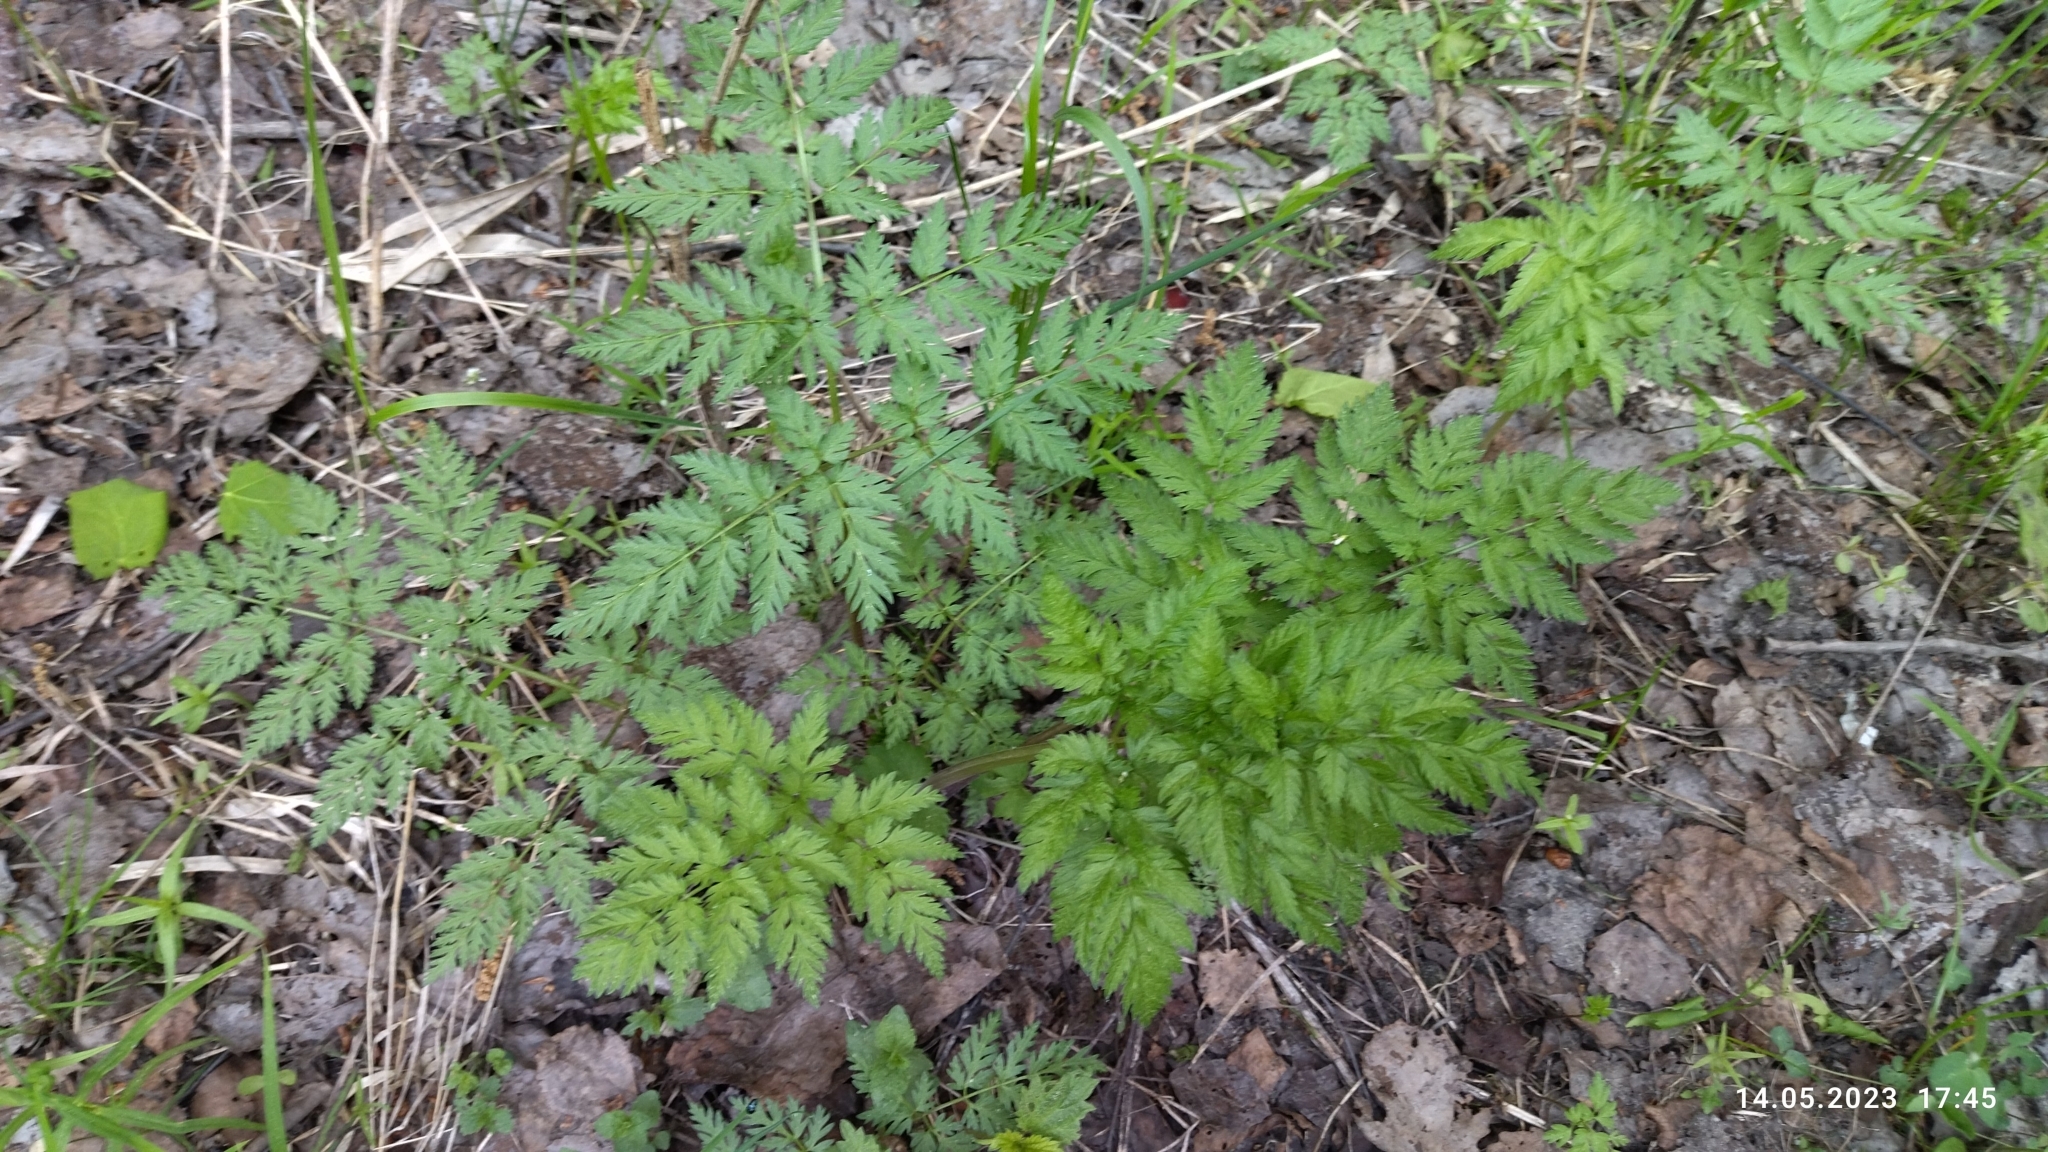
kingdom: Plantae
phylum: Tracheophyta
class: Magnoliopsida
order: Apiales
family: Apiaceae
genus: Anthriscus
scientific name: Anthriscus sylvestris
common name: Cow parsley
